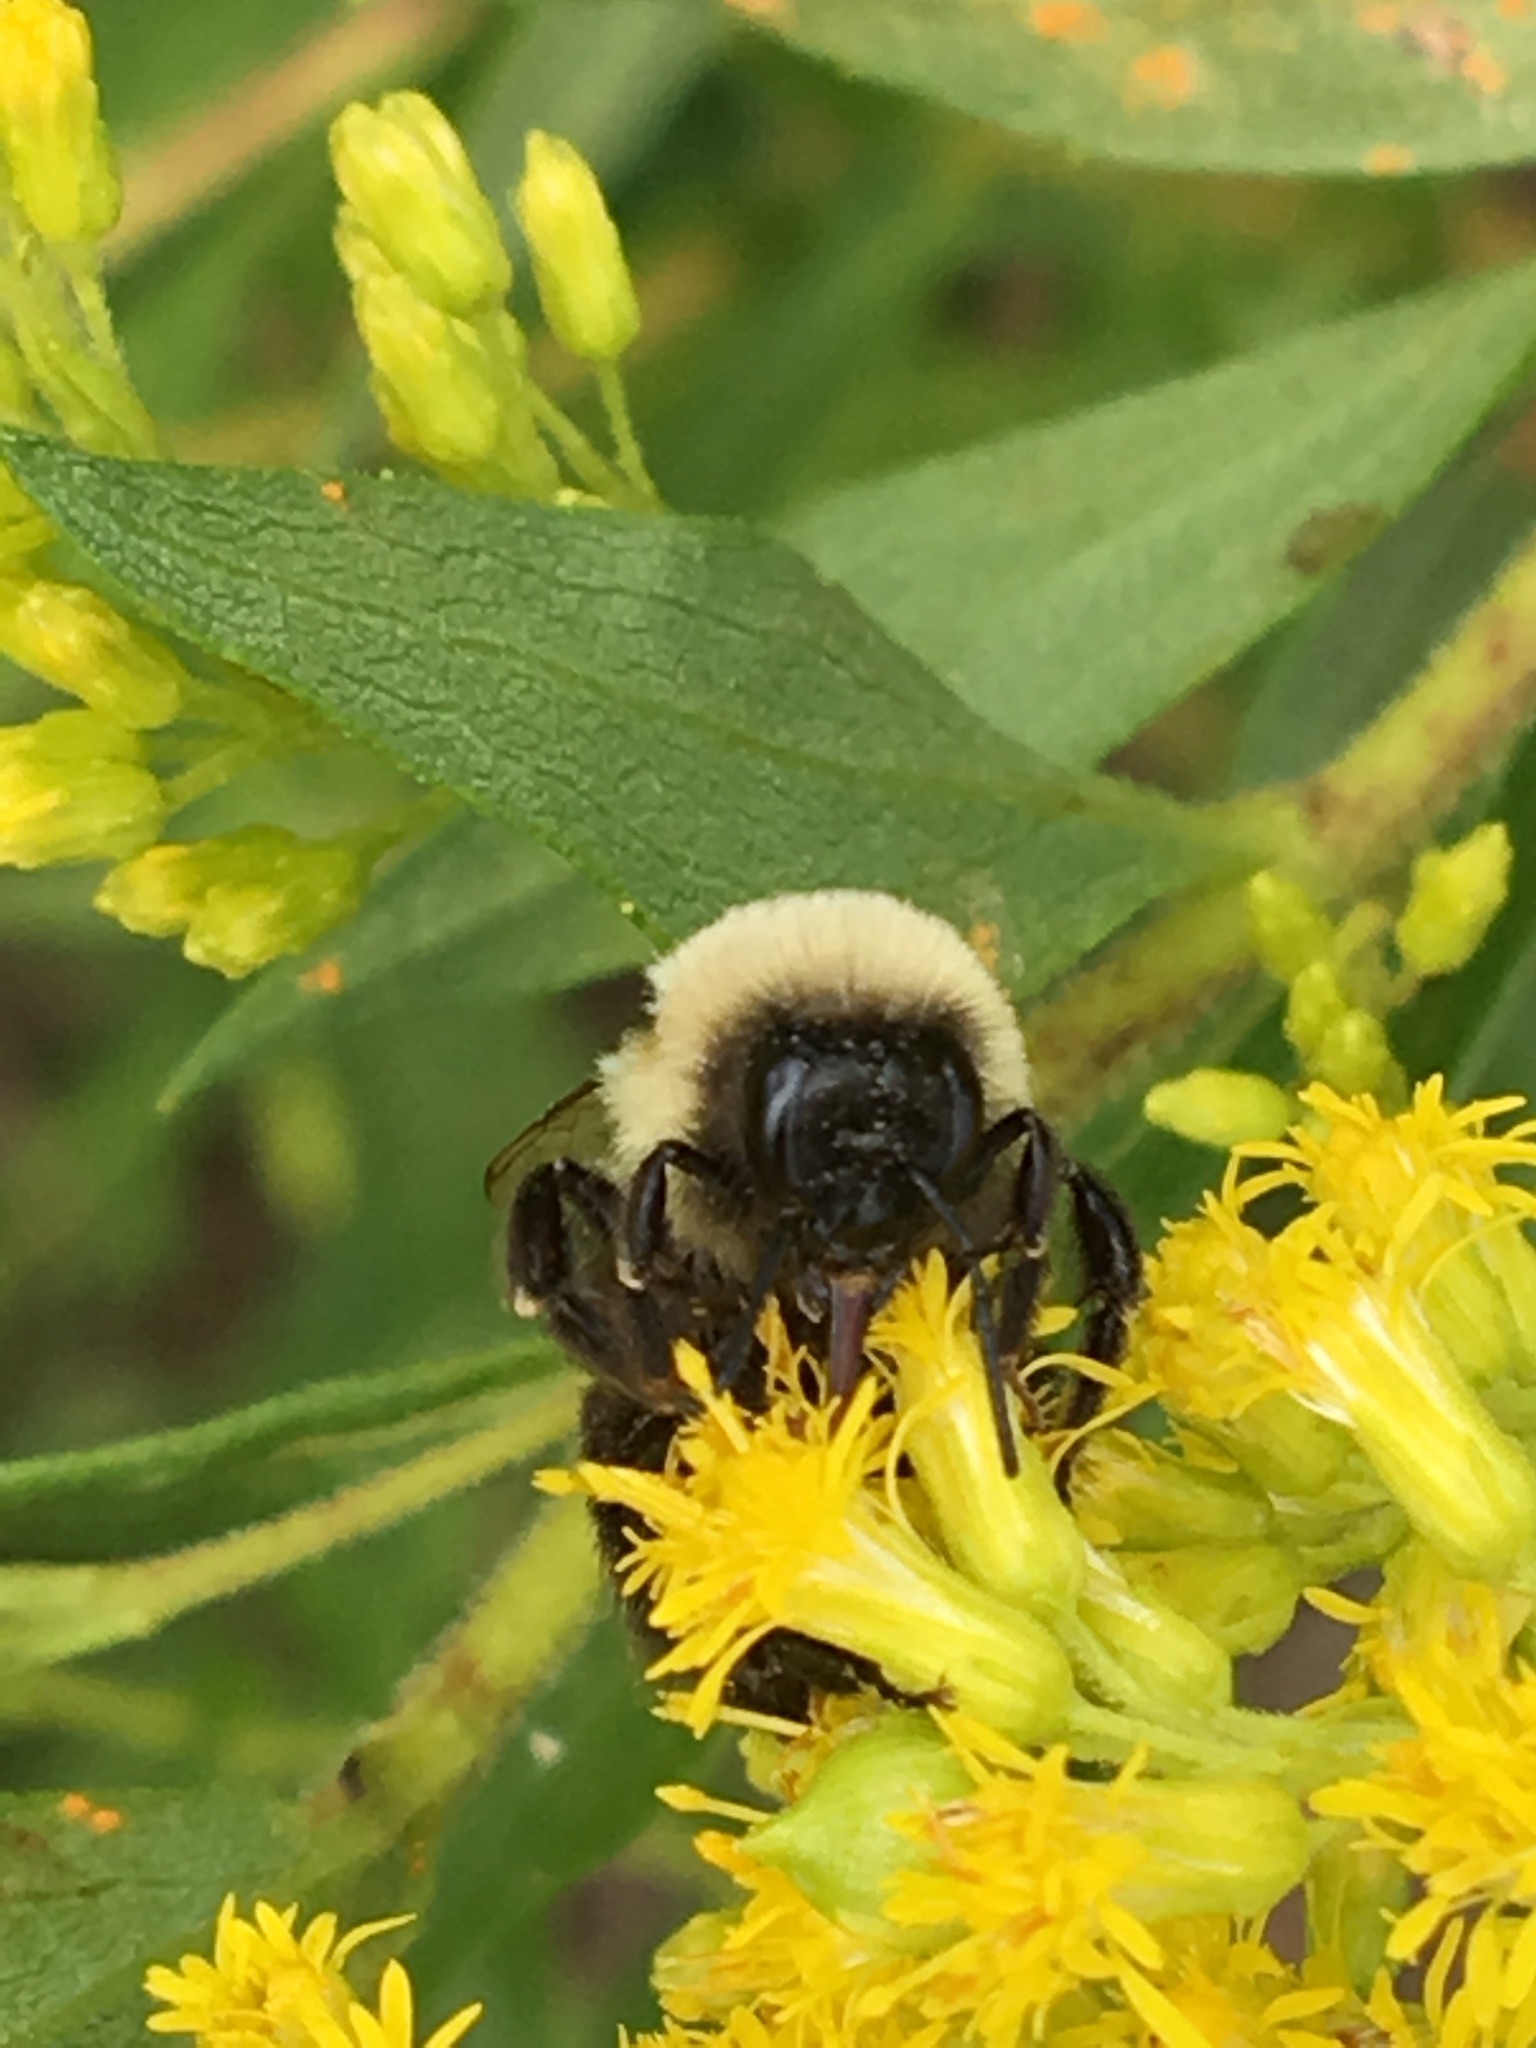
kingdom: Animalia
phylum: Arthropoda
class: Insecta
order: Hymenoptera
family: Apidae
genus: Bombus
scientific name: Bombus impatiens
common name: Common eastern bumble bee
